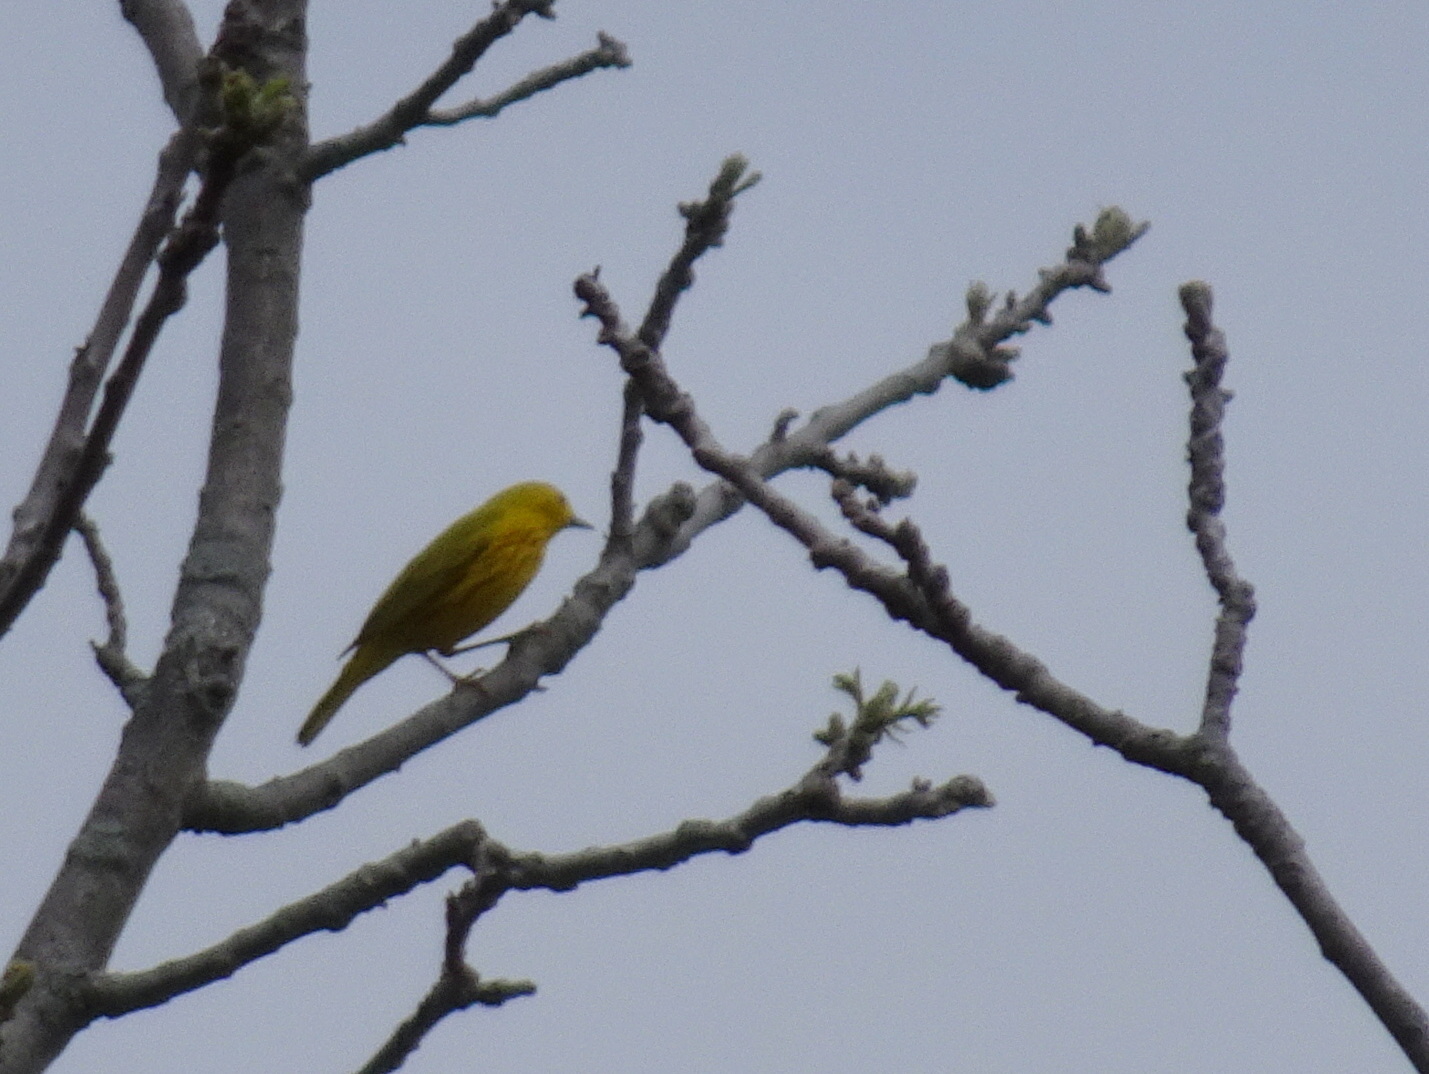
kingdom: Animalia
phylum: Chordata
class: Aves
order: Passeriformes
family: Parulidae
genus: Setophaga
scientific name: Setophaga petechia
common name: Yellow warbler
